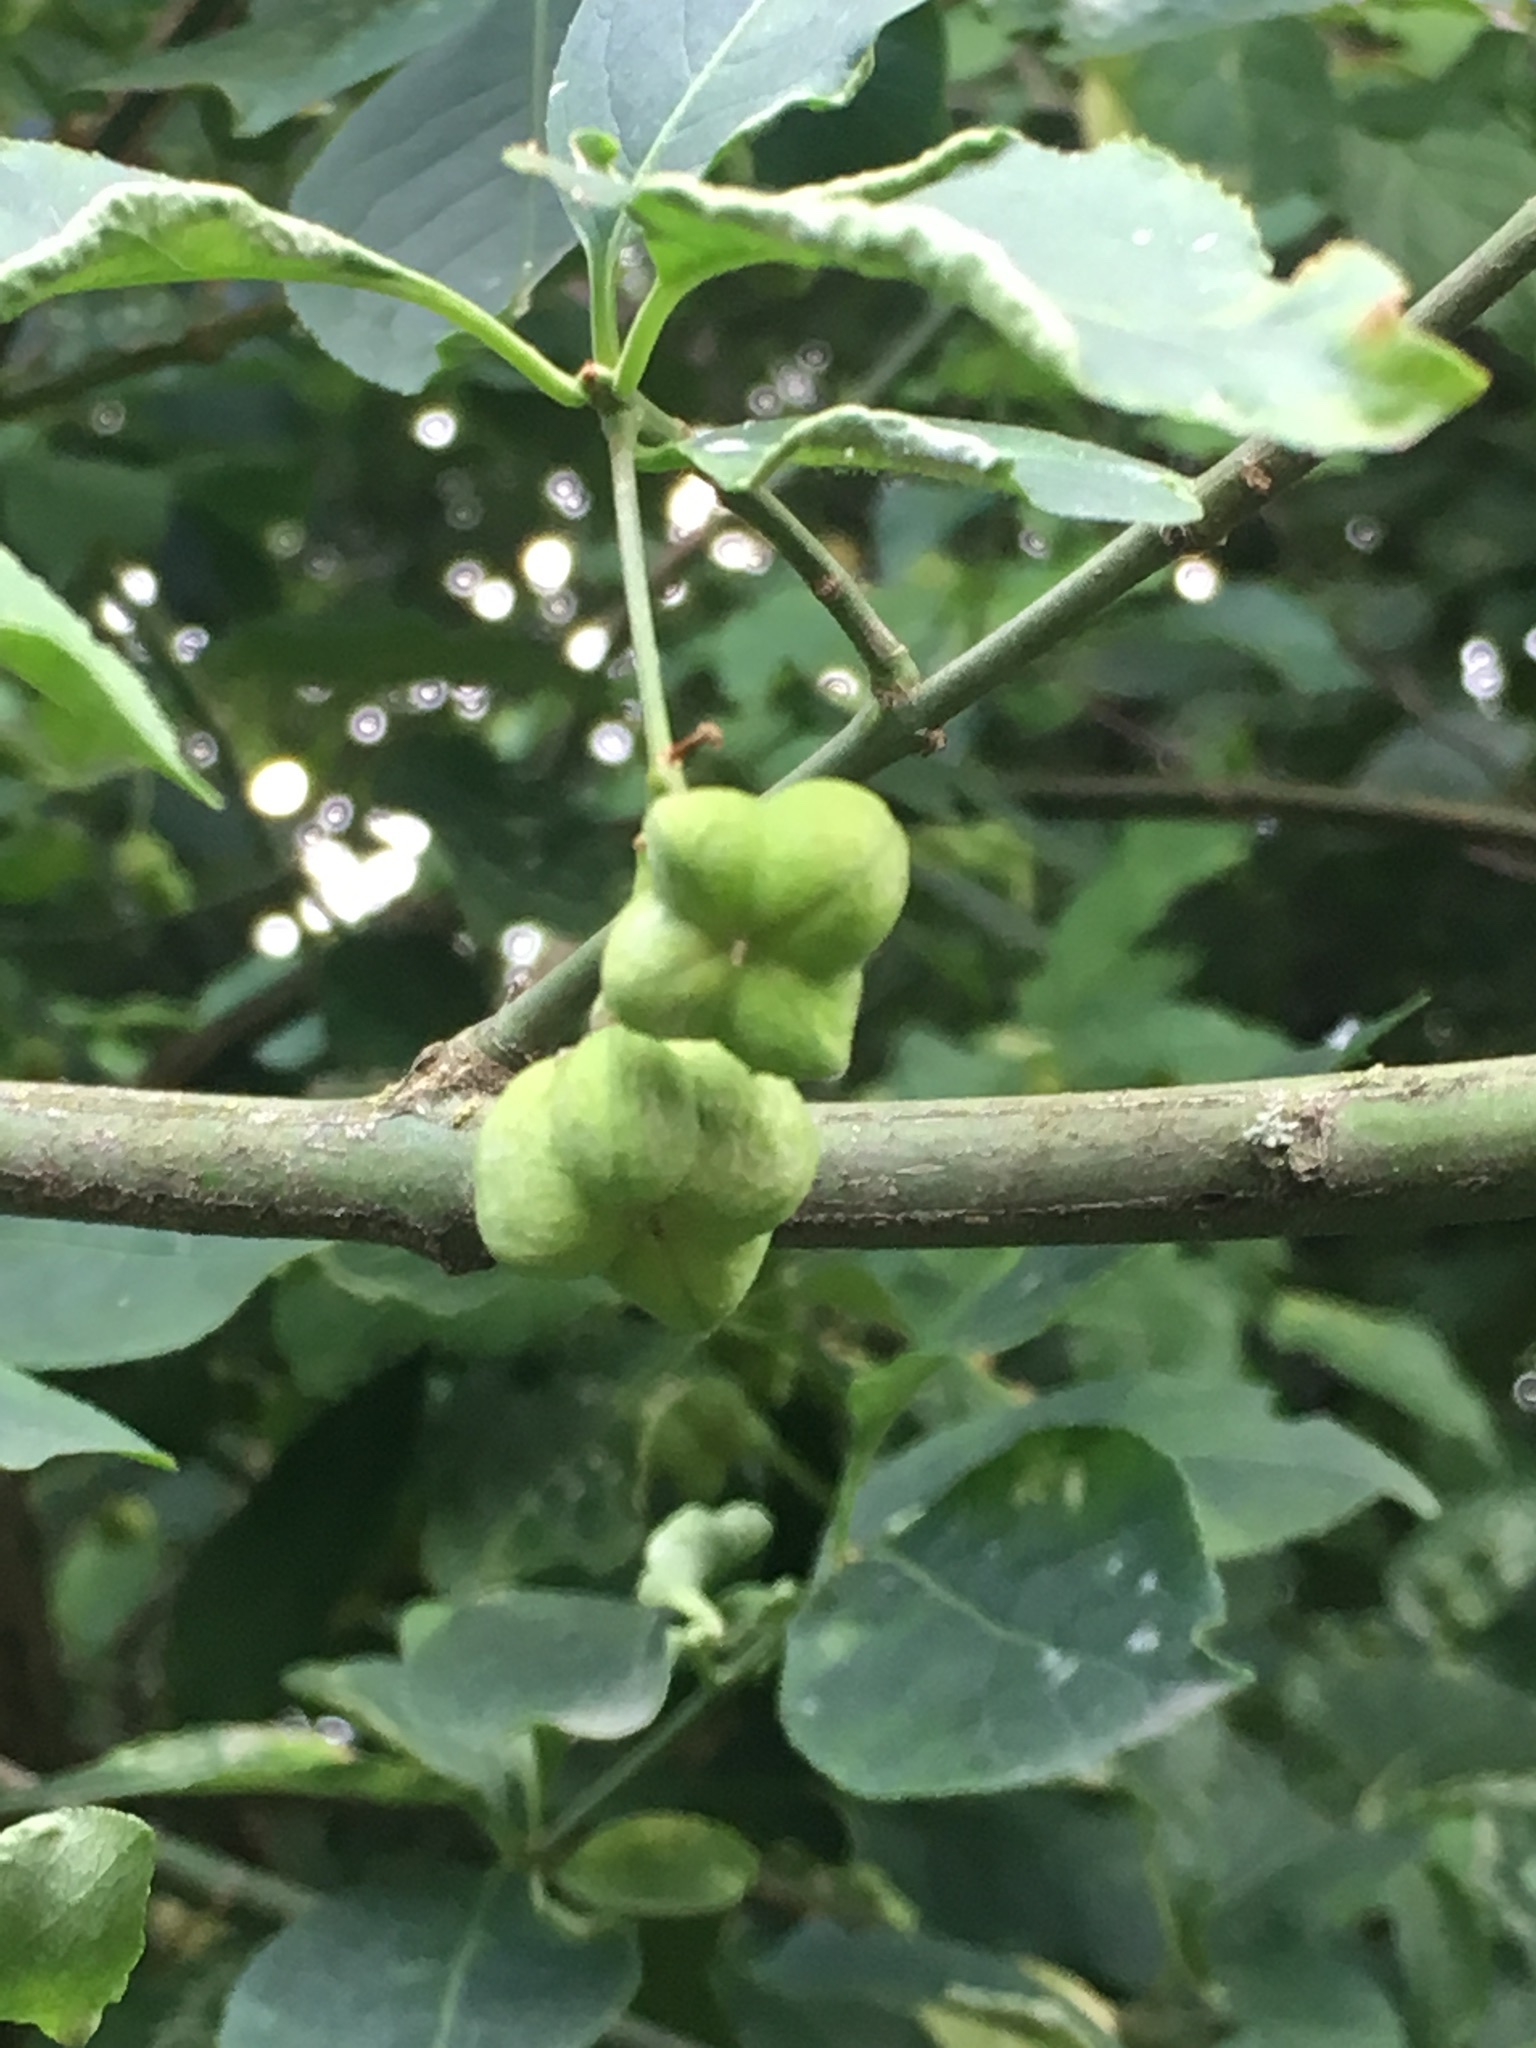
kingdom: Plantae
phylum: Tracheophyta
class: Magnoliopsida
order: Celastrales
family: Celastraceae
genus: Euonymus
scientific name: Euonymus europaeus
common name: Spindle
